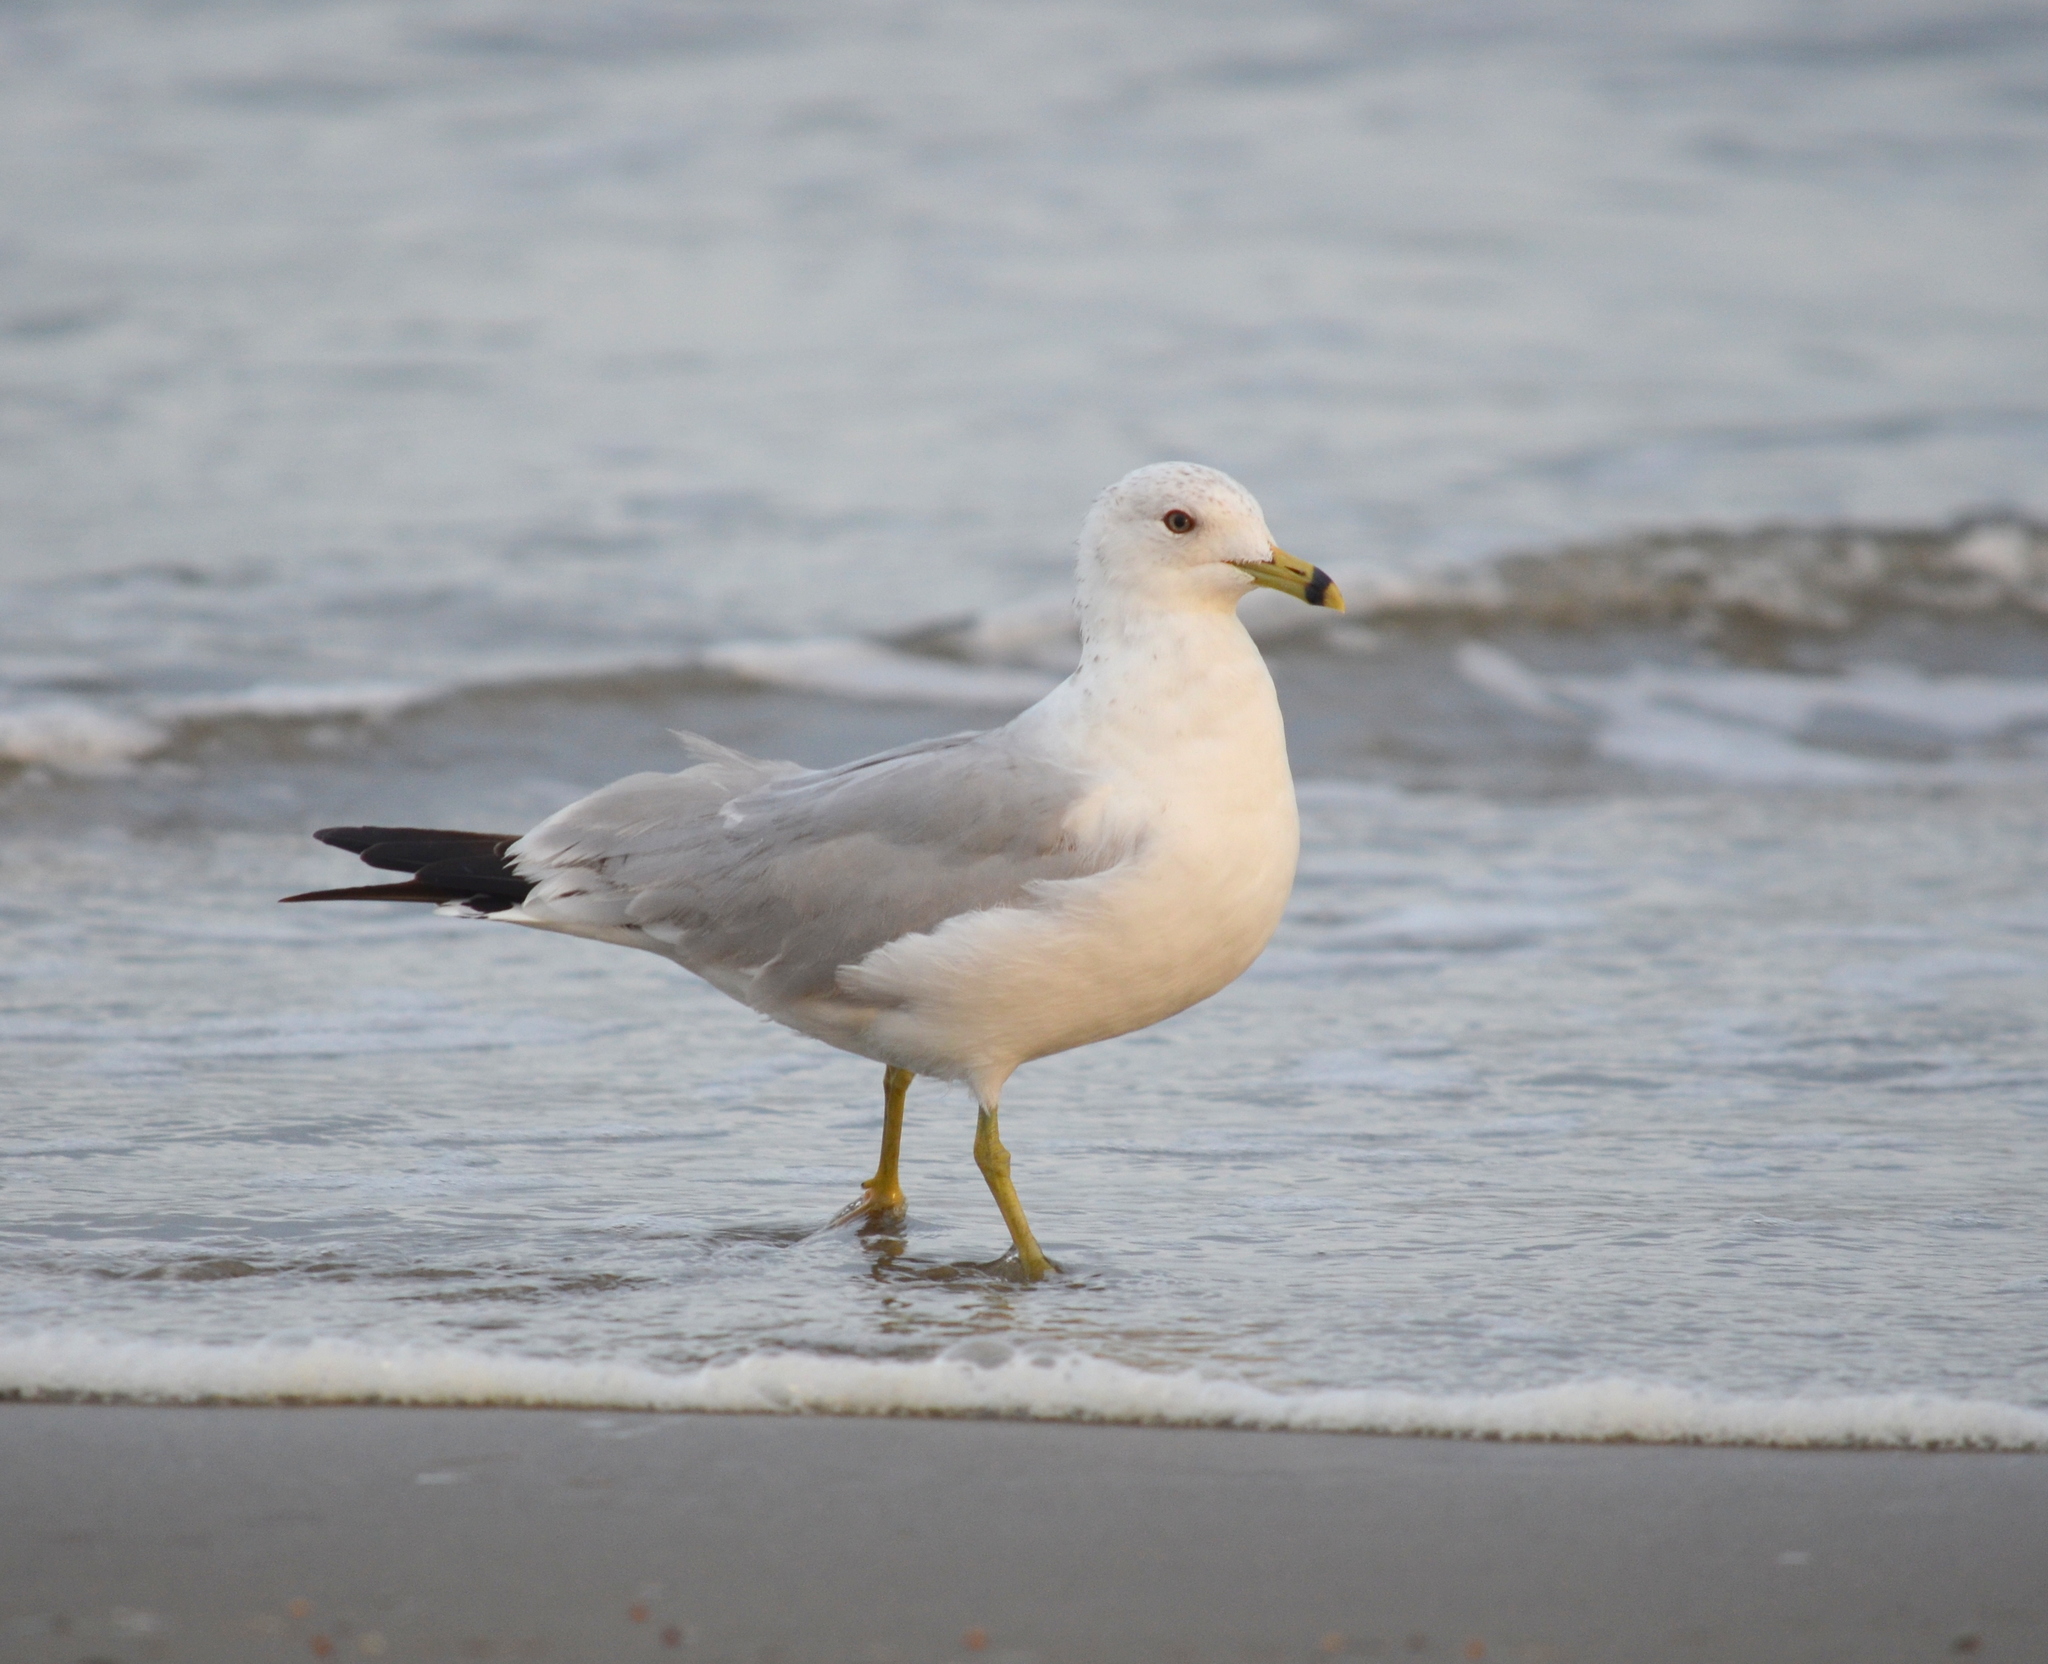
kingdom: Animalia
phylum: Chordata
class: Aves
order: Charadriiformes
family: Laridae
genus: Larus
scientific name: Larus delawarensis
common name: Ring-billed gull
